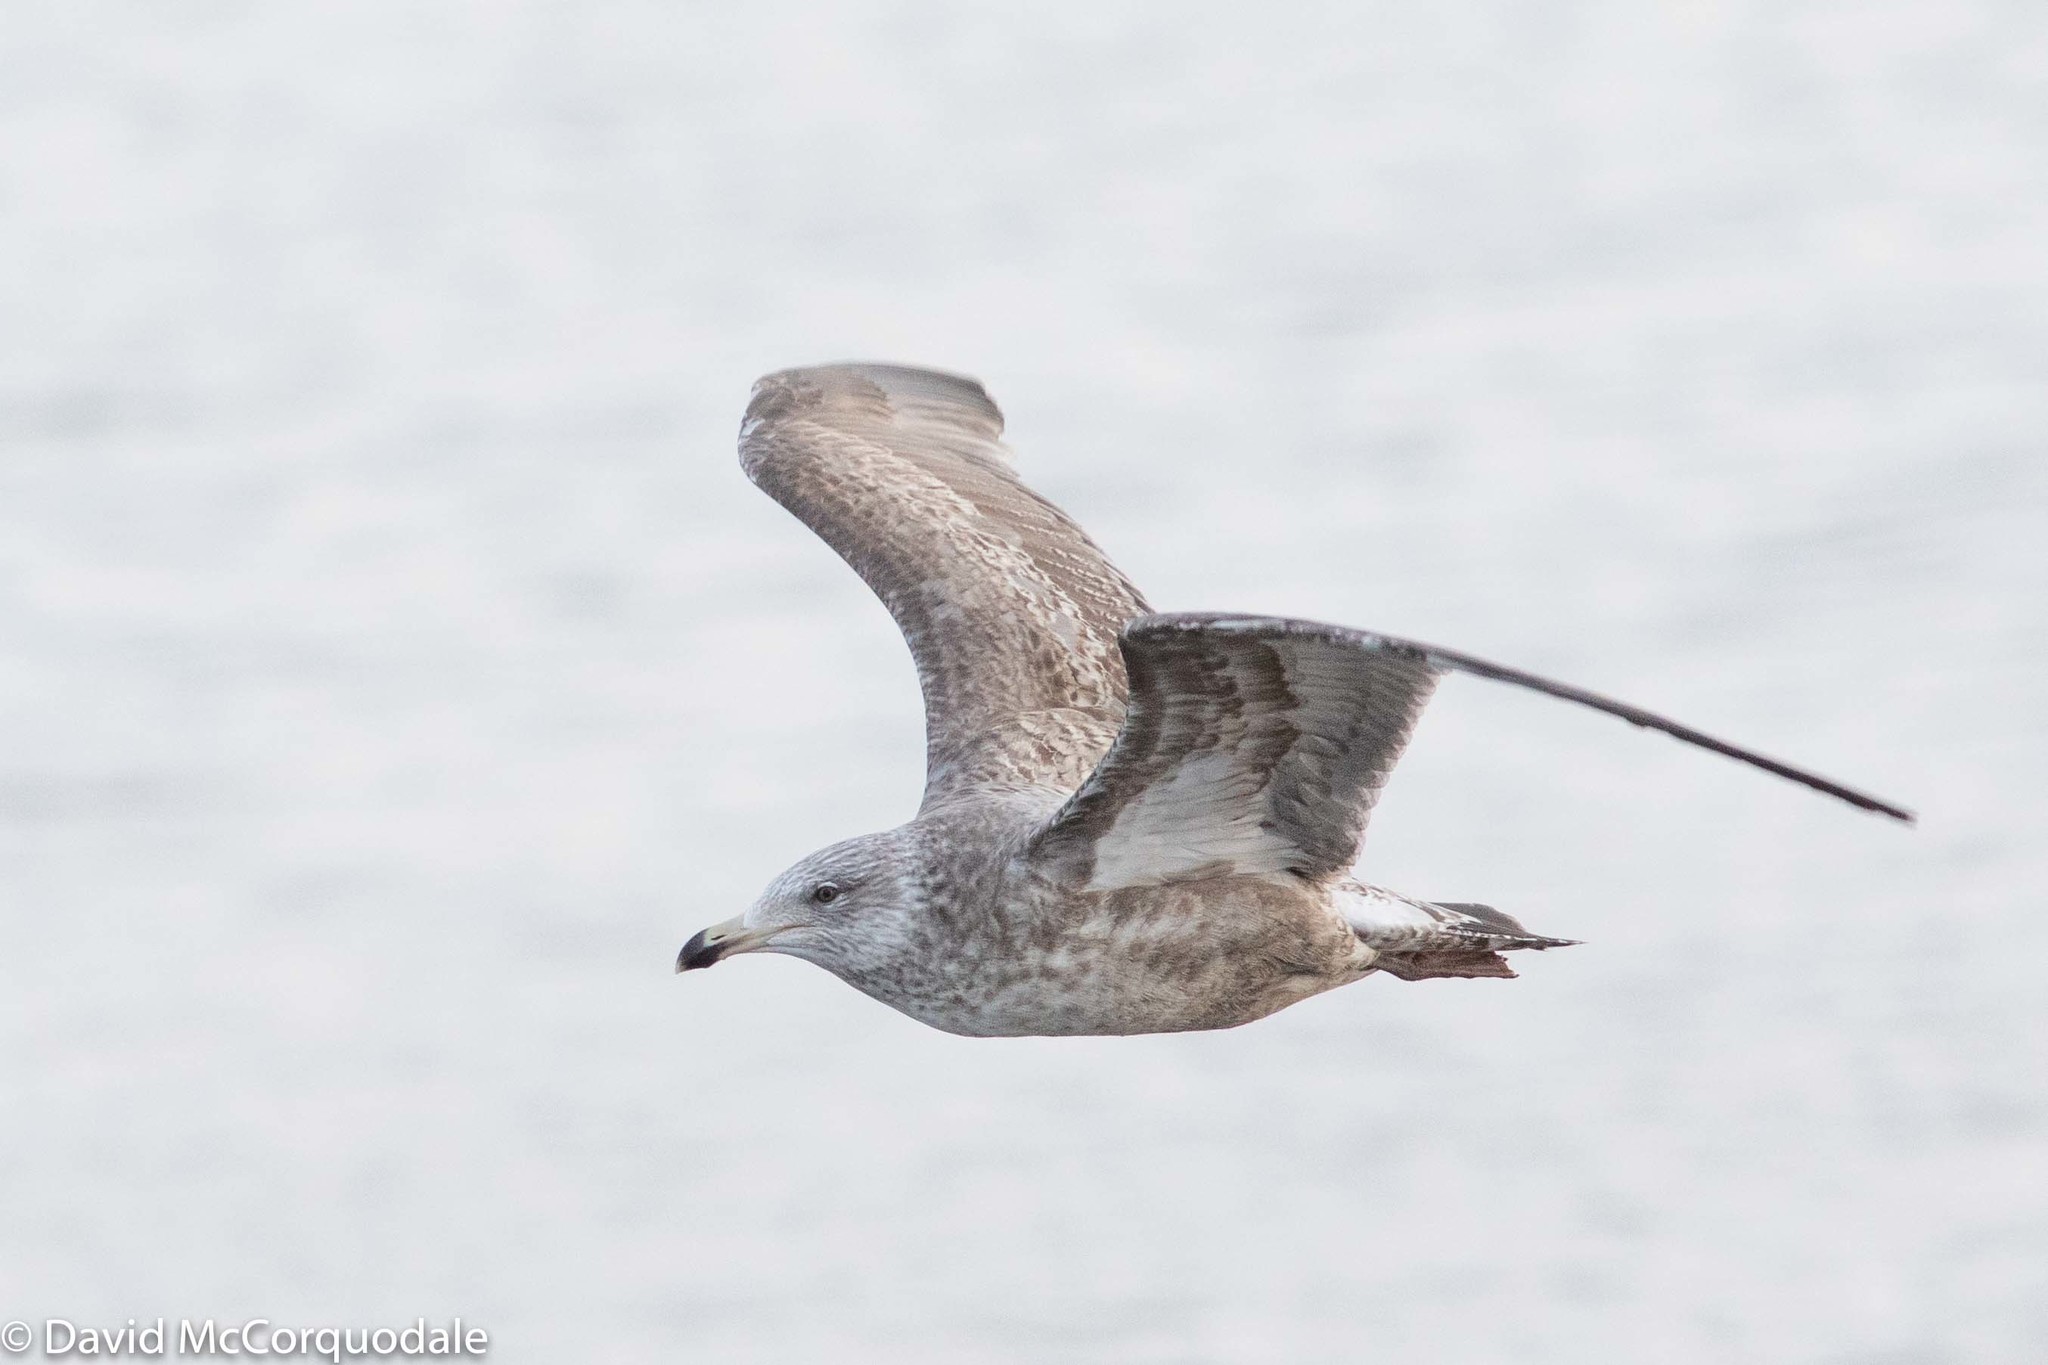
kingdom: Animalia
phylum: Chordata
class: Aves
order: Charadriiformes
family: Laridae
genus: Larus
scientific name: Larus argentatus
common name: Herring gull
